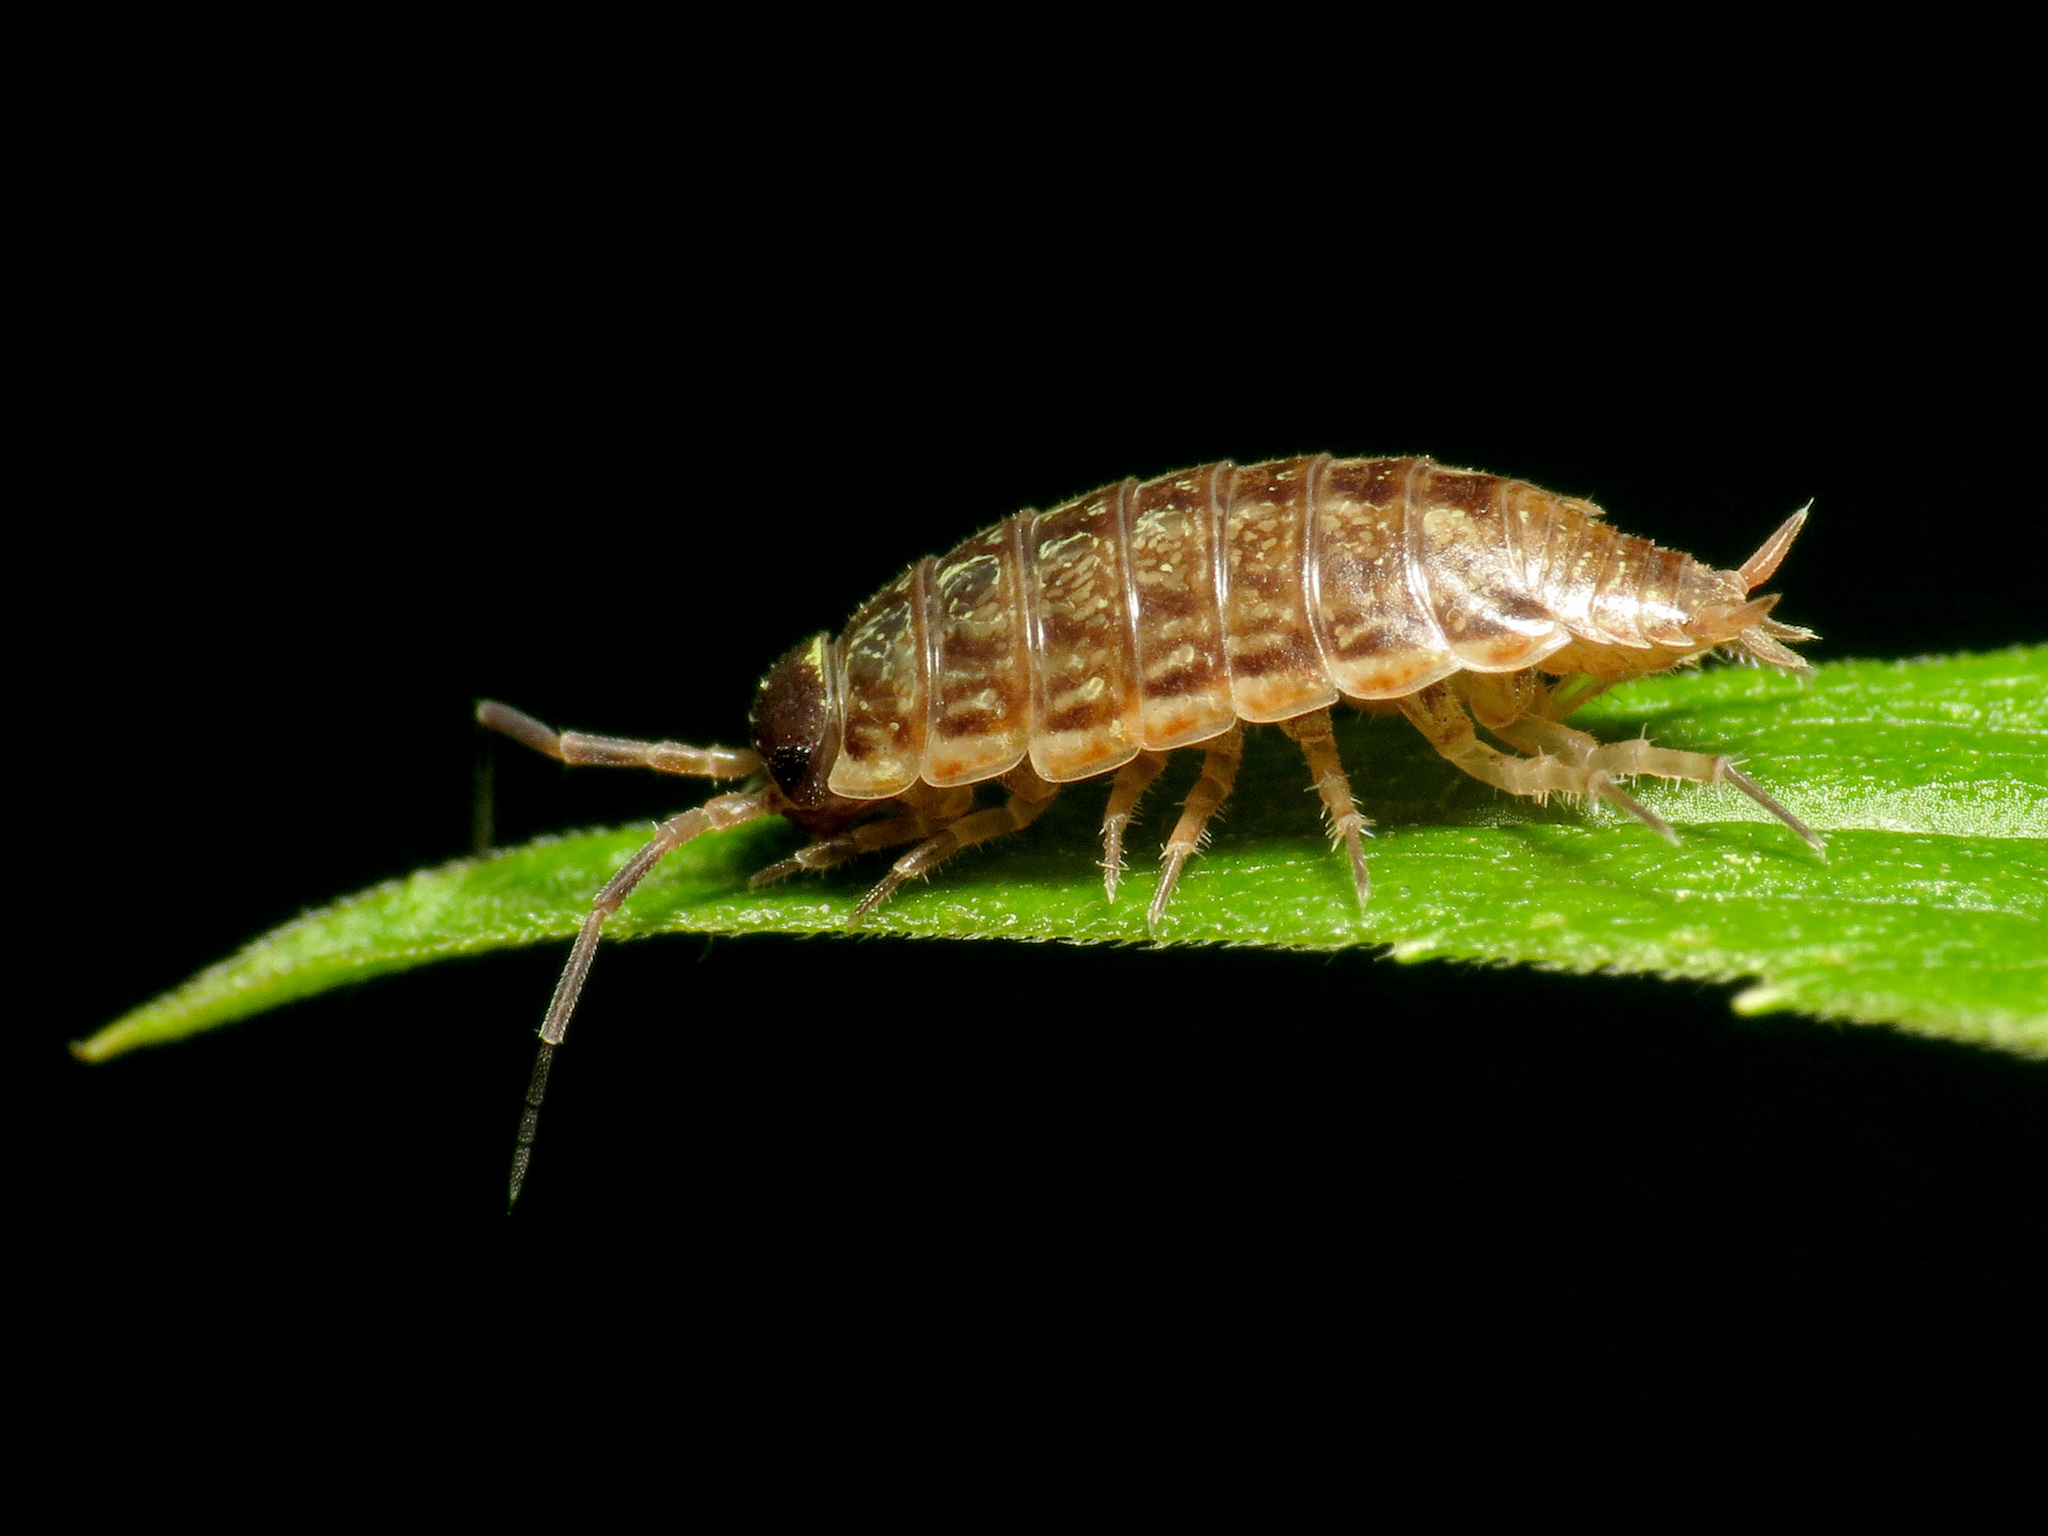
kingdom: Animalia
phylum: Arthropoda
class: Malacostraca
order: Isopoda
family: Philosciidae
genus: Philoscia
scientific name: Philoscia muscorum
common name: Common striped woodlouse
